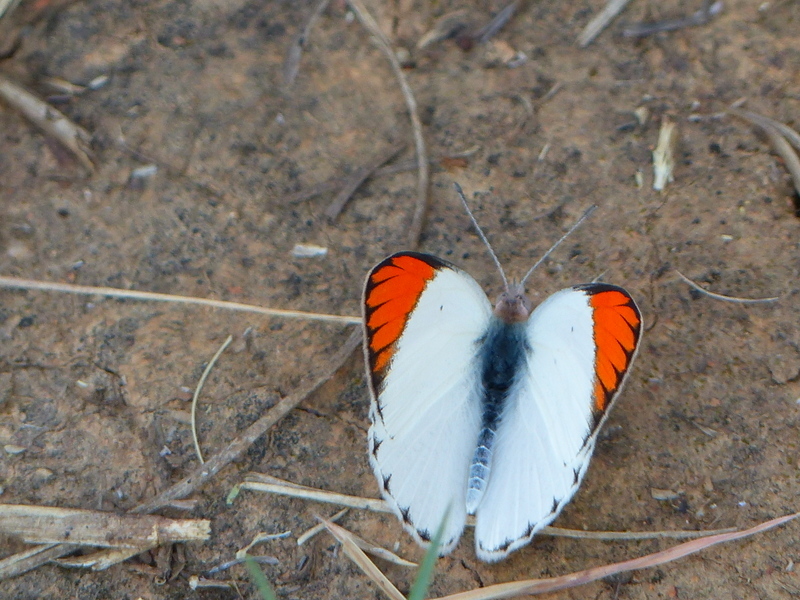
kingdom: Animalia
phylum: Arthropoda
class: Insecta
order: Lepidoptera
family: Pieridae
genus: Colotis
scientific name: Colotis antevippe
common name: Large orange tip
